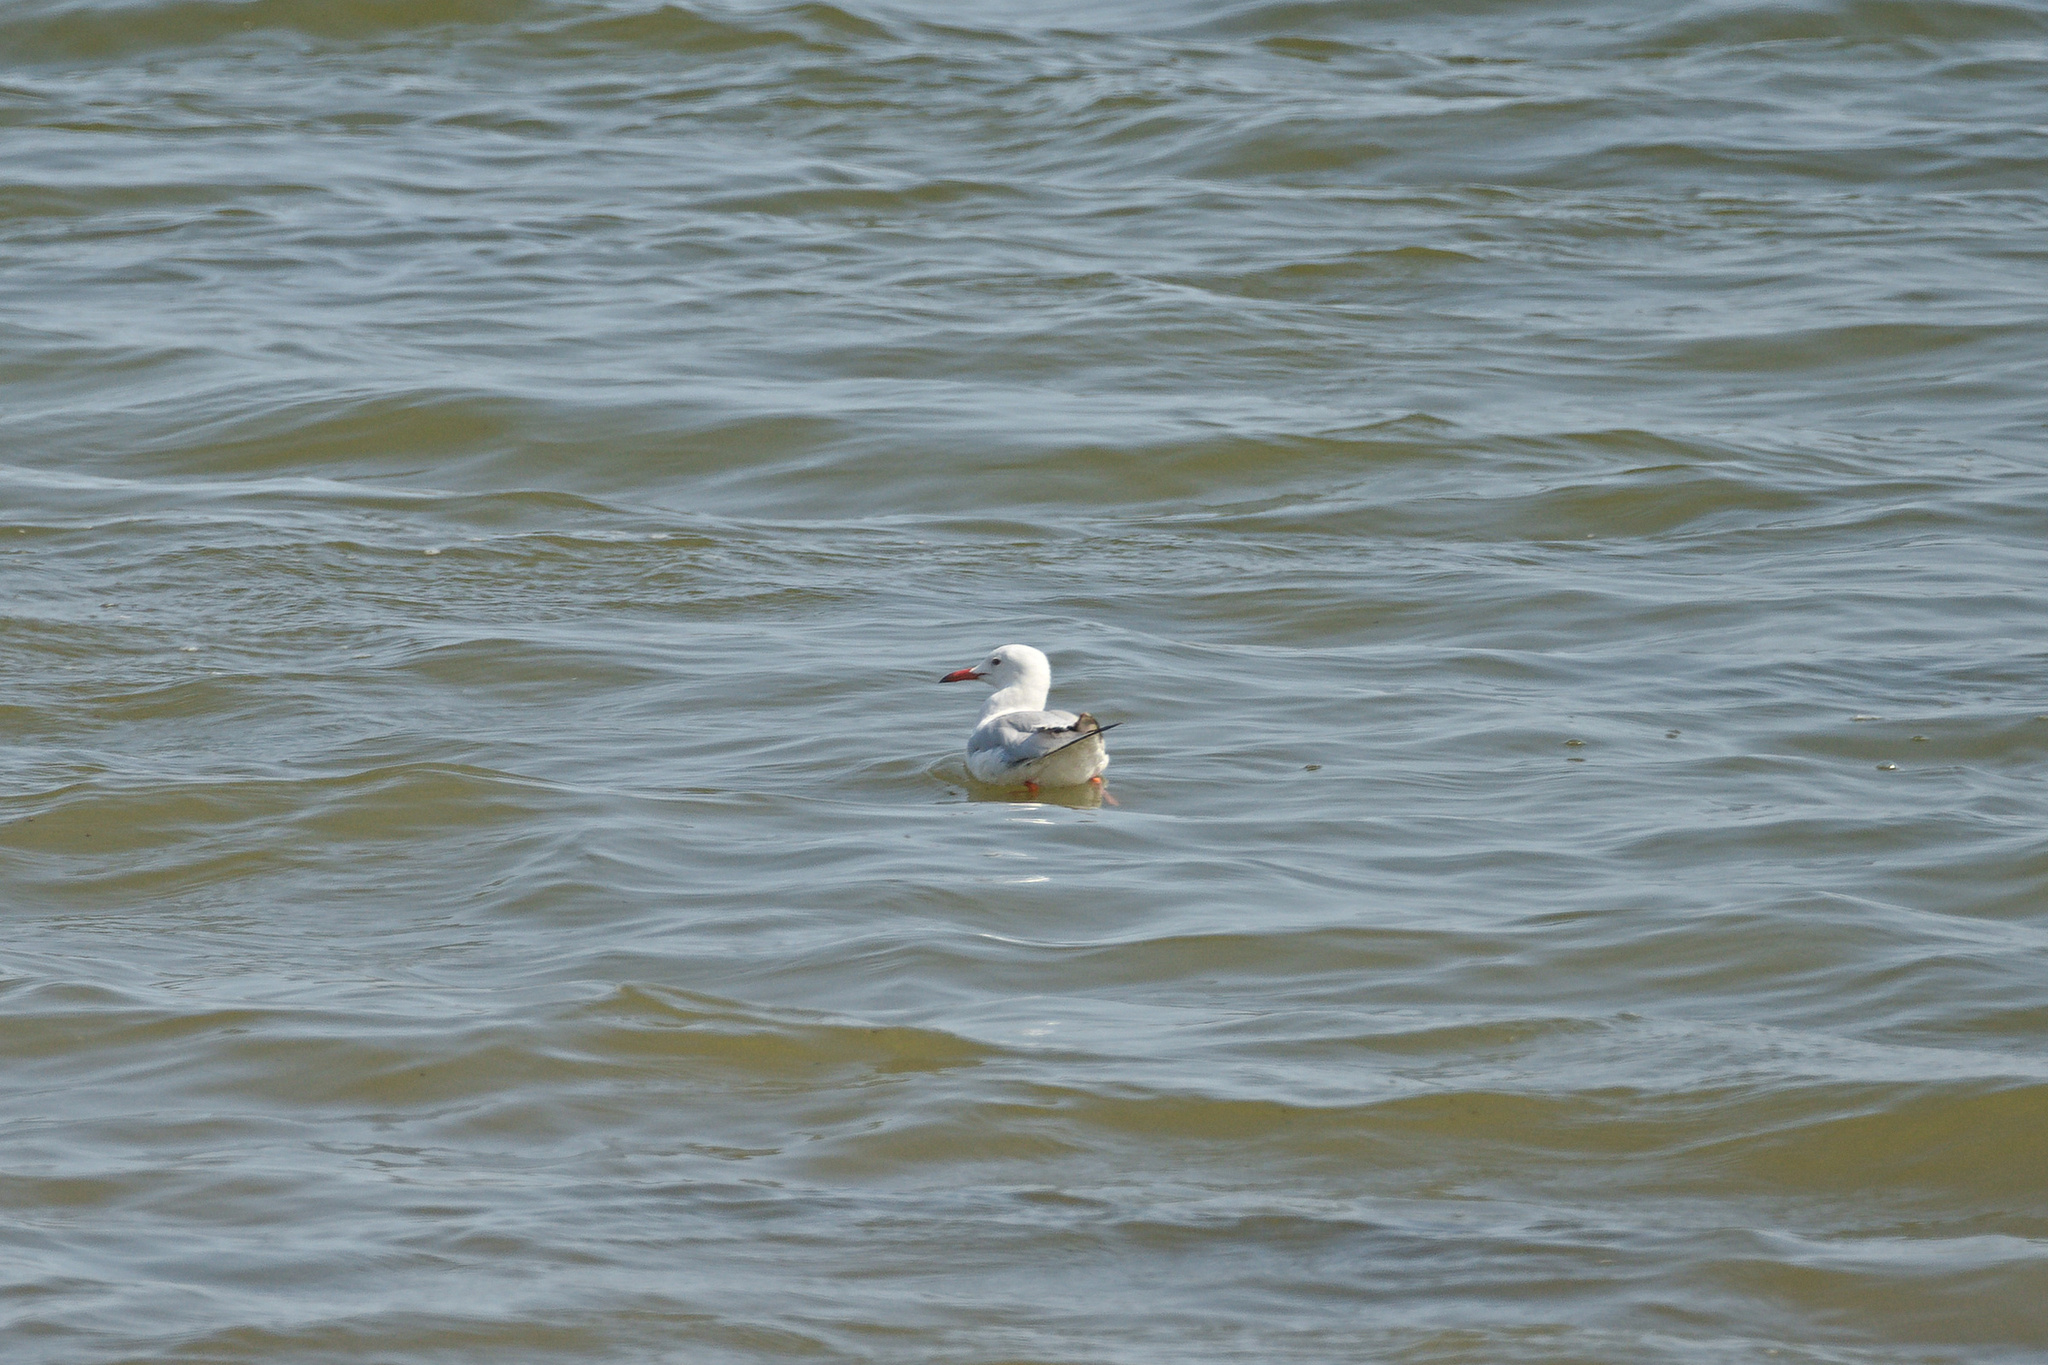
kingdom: Animalia
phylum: Chordata
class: Aves
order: Charadriiformes
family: Laridae
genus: Chroicocephalus
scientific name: Chroicocephalus genei
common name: Slender-billed gull
